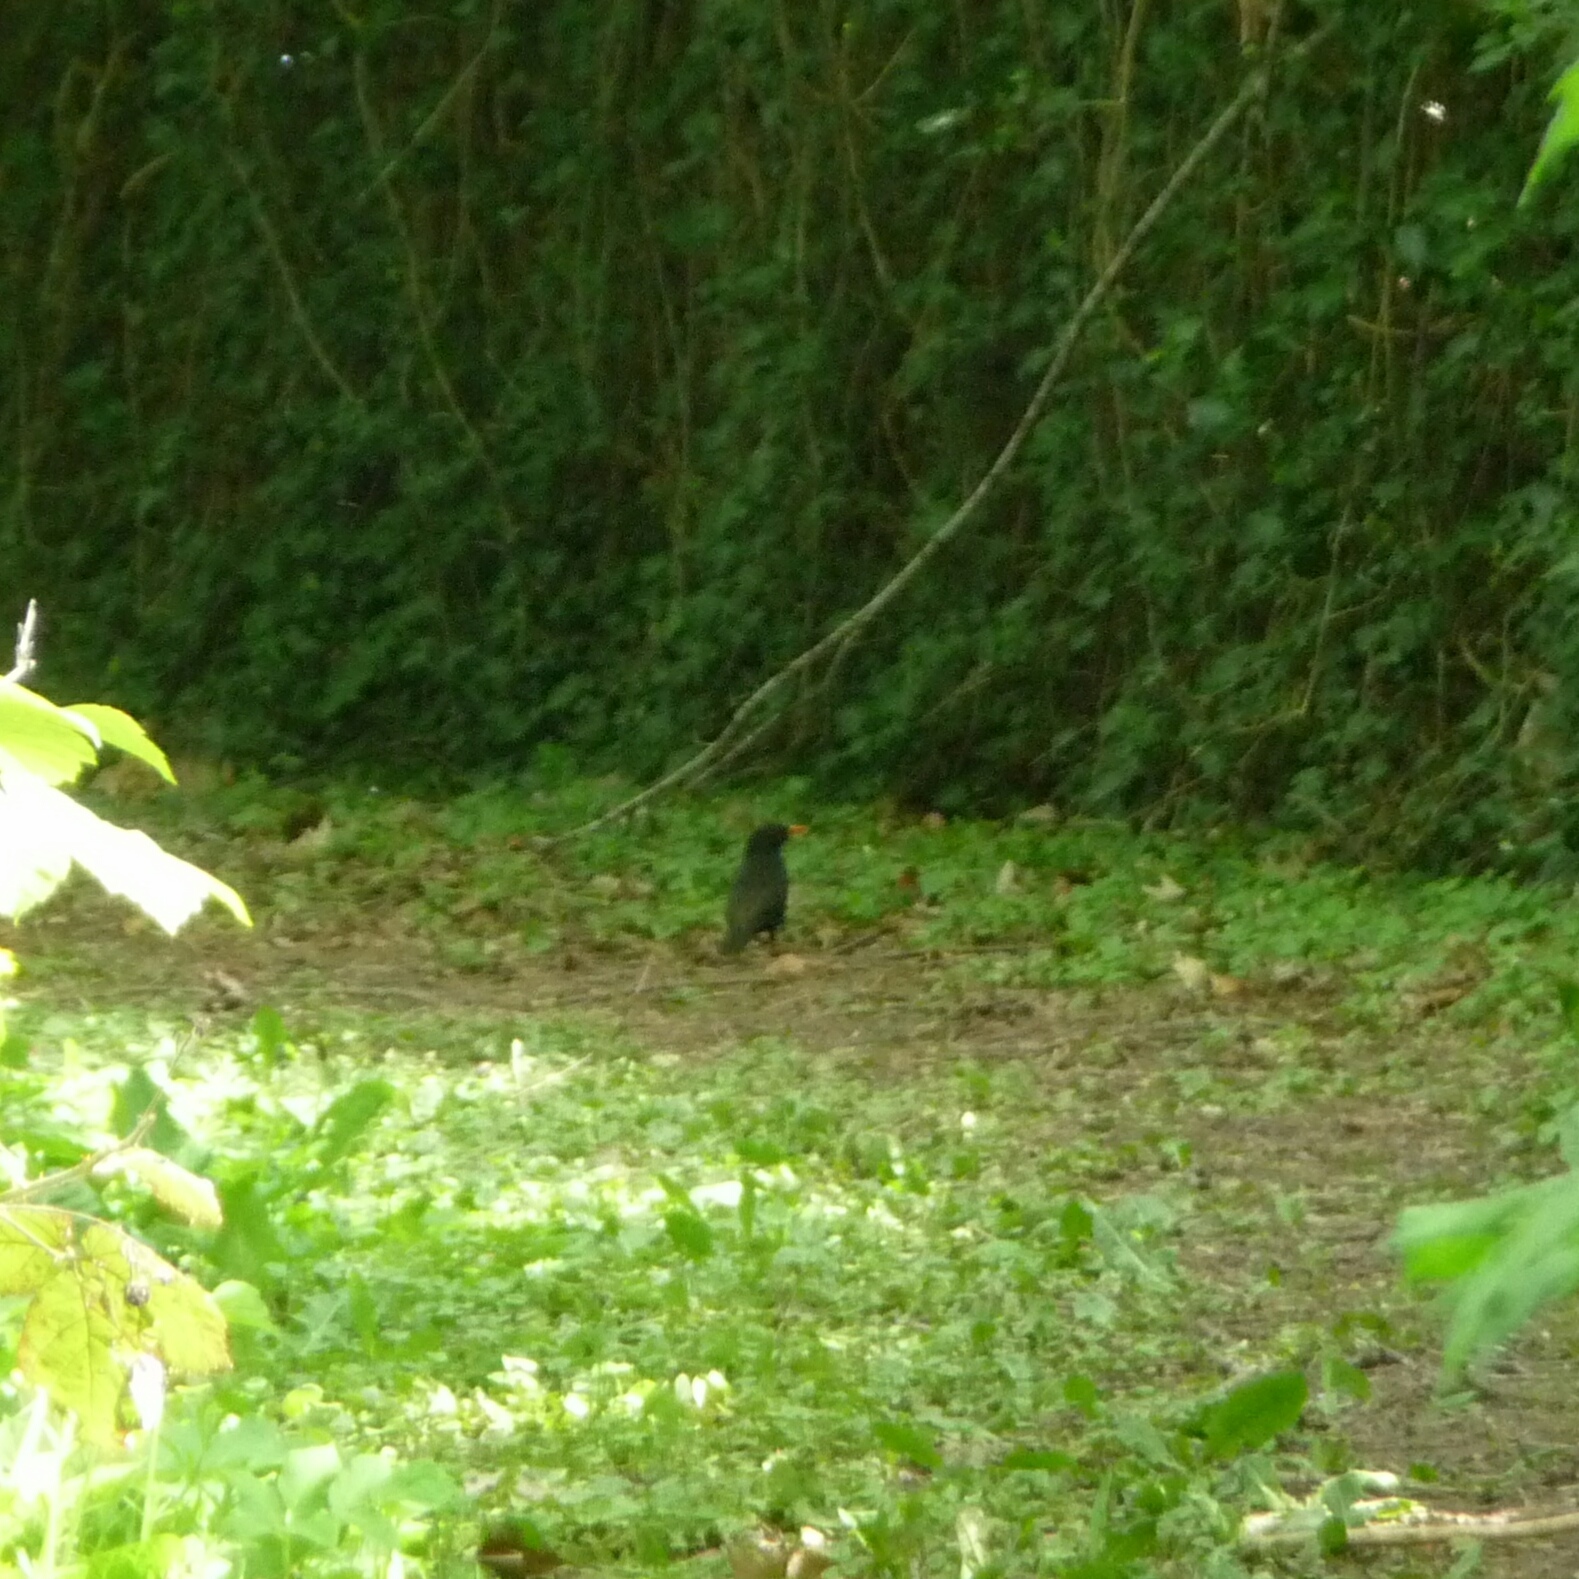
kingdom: Animalia
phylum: Chordata
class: Aves
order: Passeriformes
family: Turdidae
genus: Turdus
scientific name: Turdus merula
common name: Common blackbird
